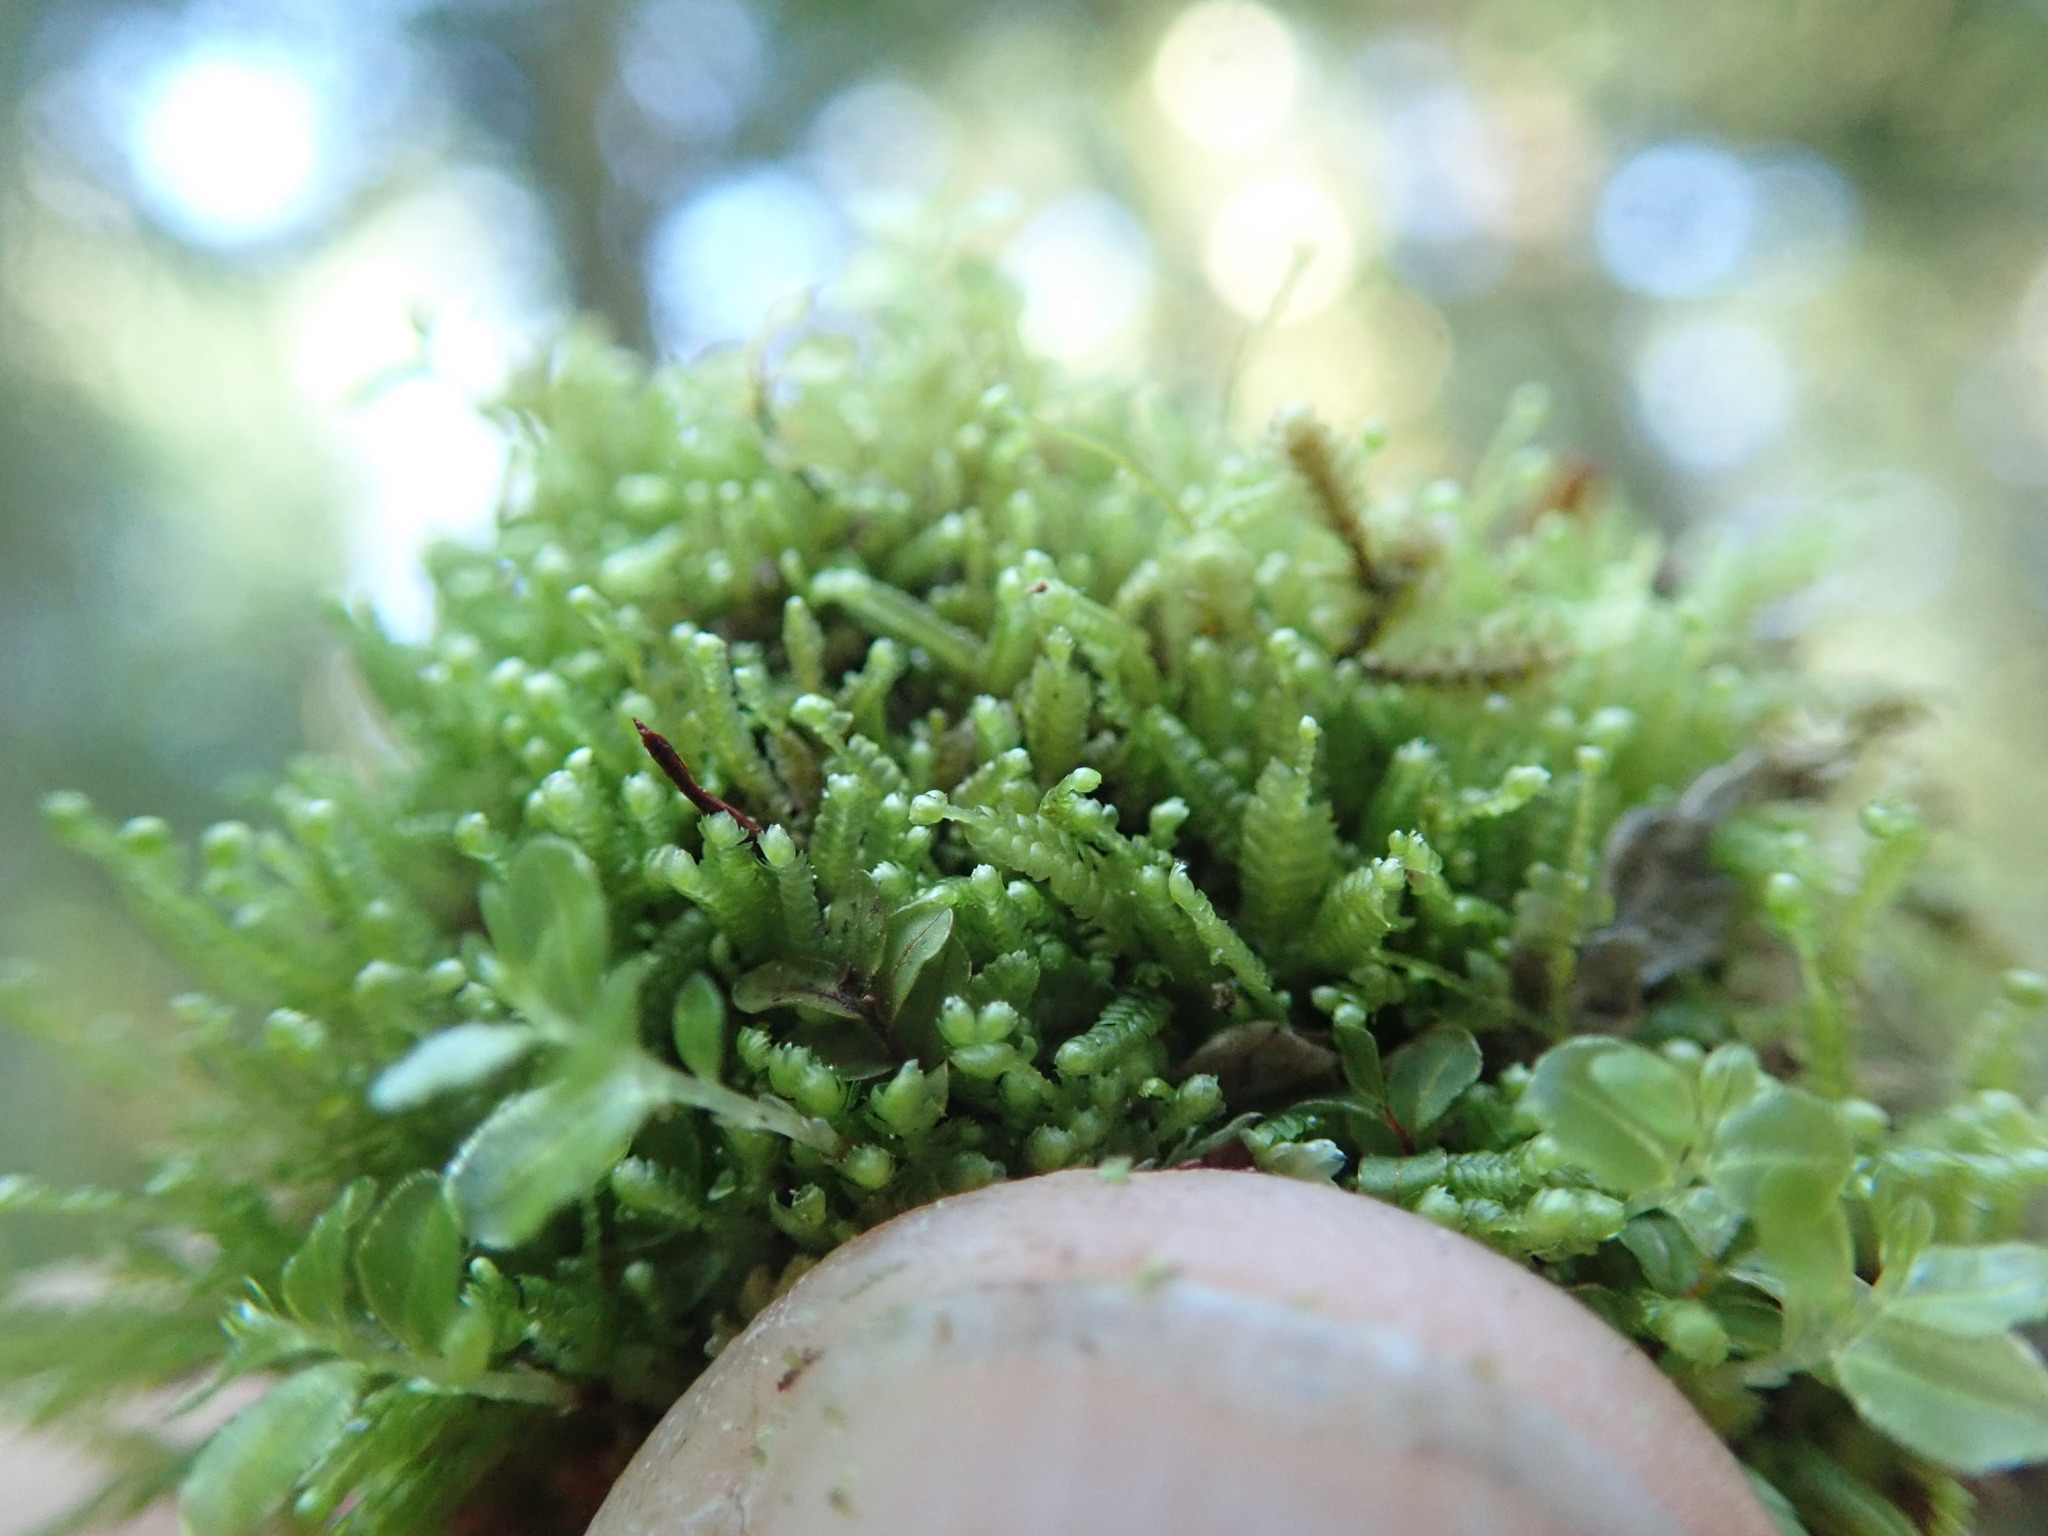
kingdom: Plantae
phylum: Marchantiophyta
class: Jungermanniopsida
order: Jungermanniales
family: Lepidoziaceae
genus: Bazzania
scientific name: Bazzania denudata
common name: Naked whipwort
